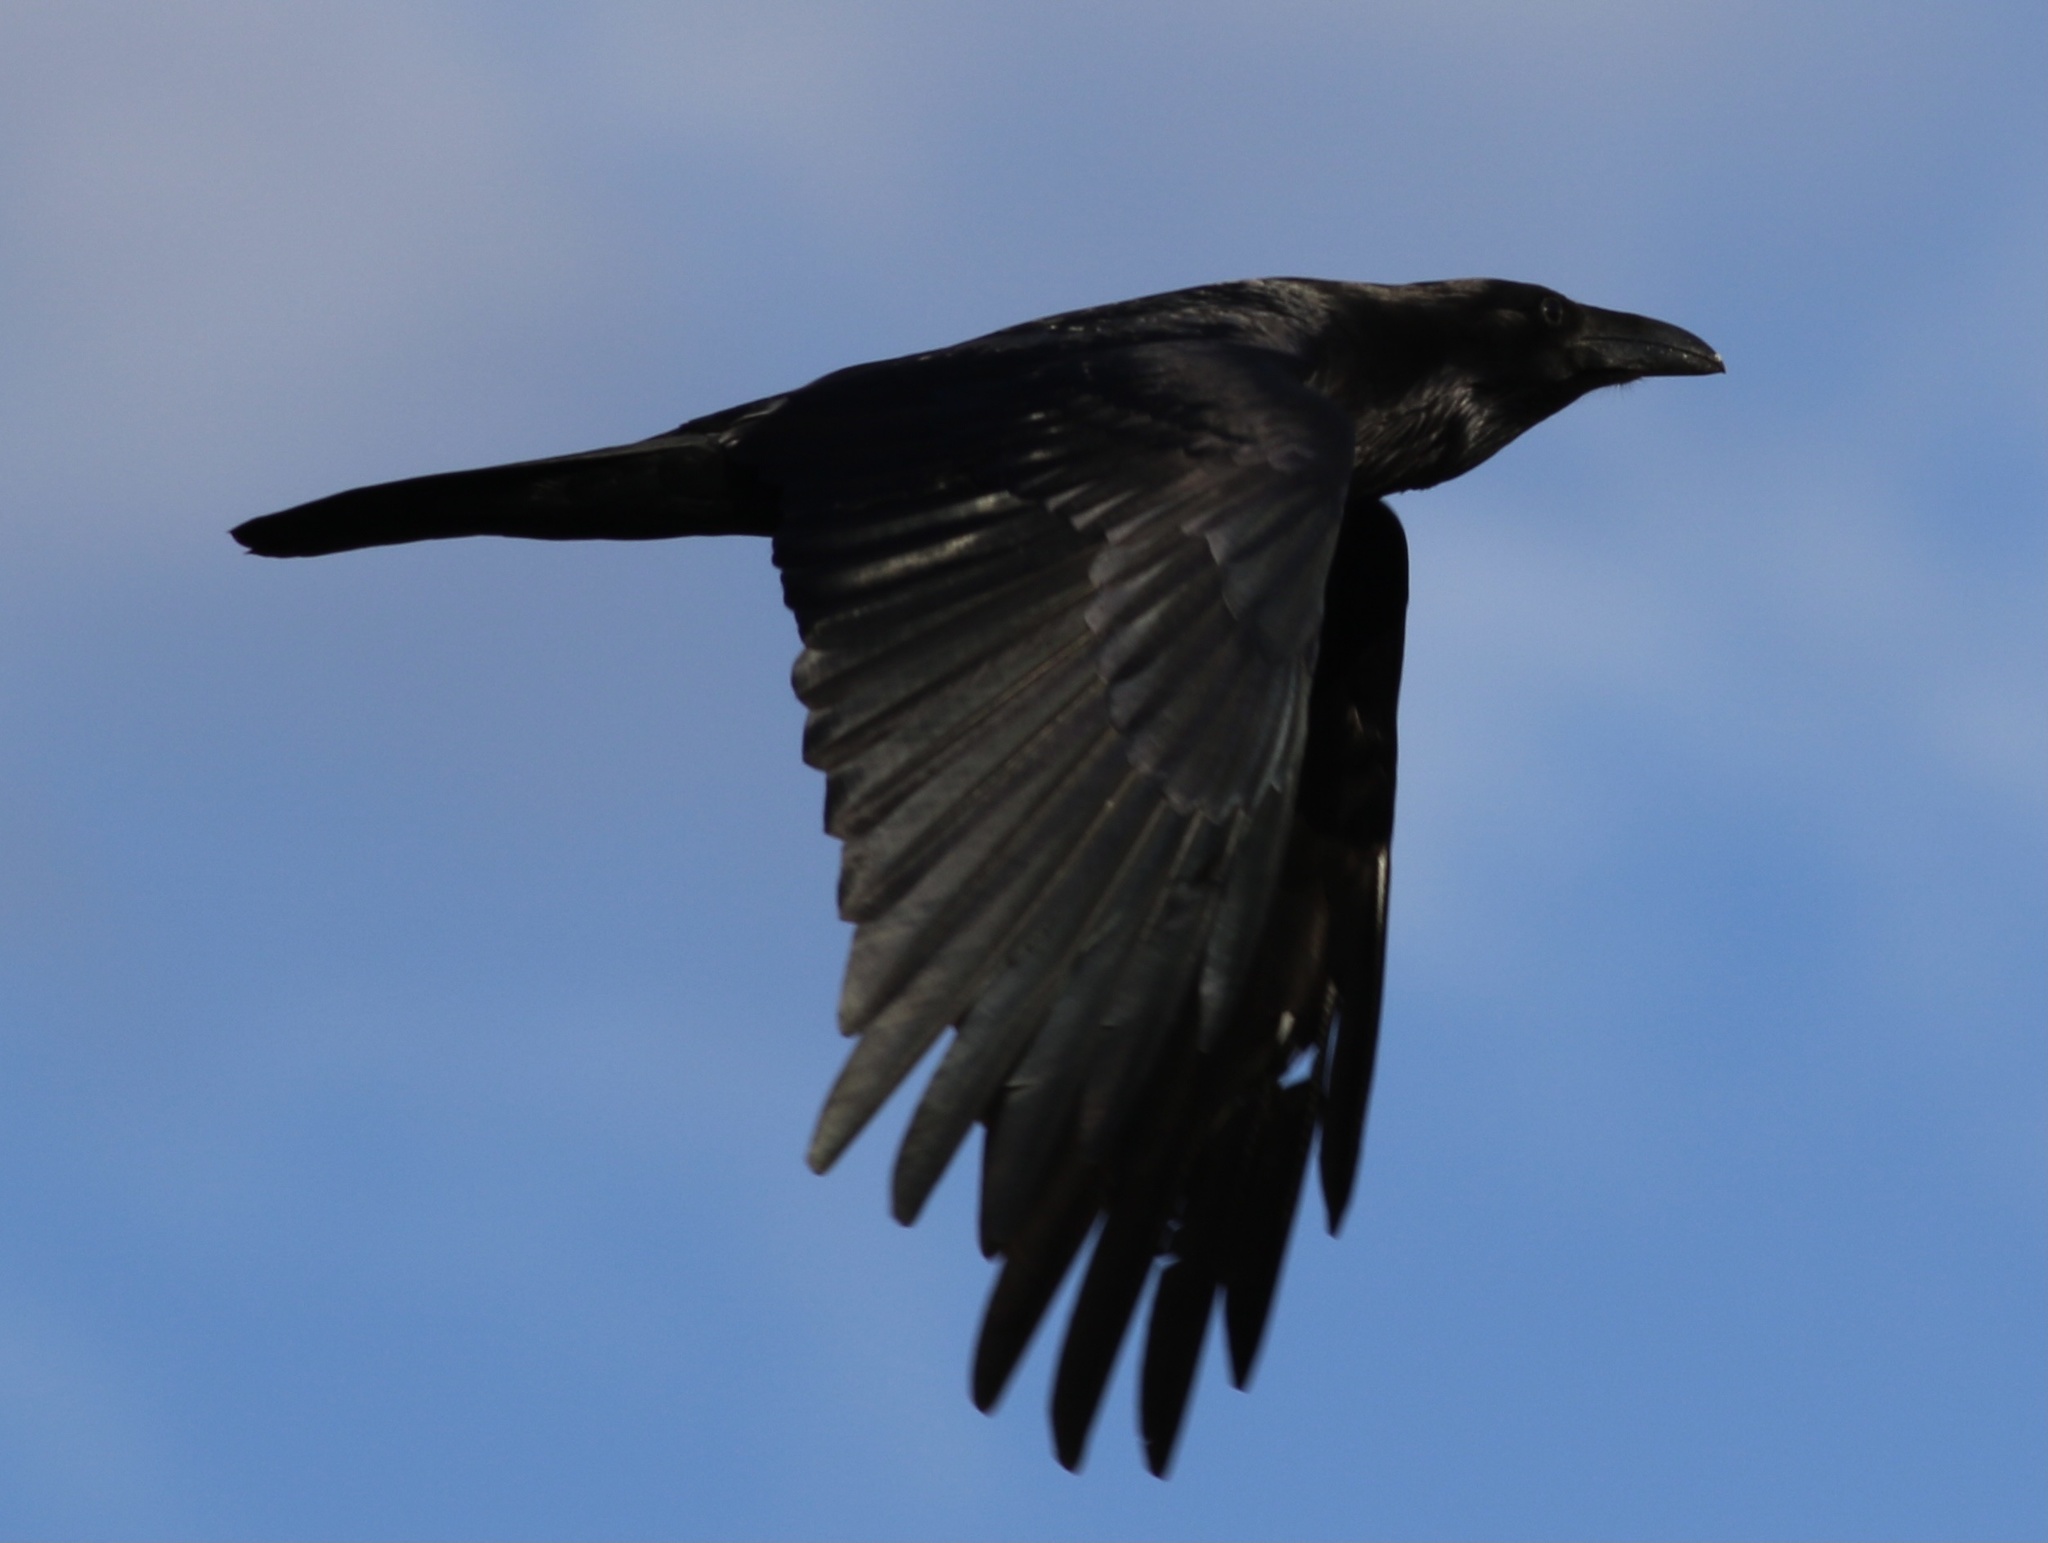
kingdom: Animalia
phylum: Chordata
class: Aves
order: Passeriformes
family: Corvidae
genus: Corvus
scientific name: Corvus corax
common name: Common raven
